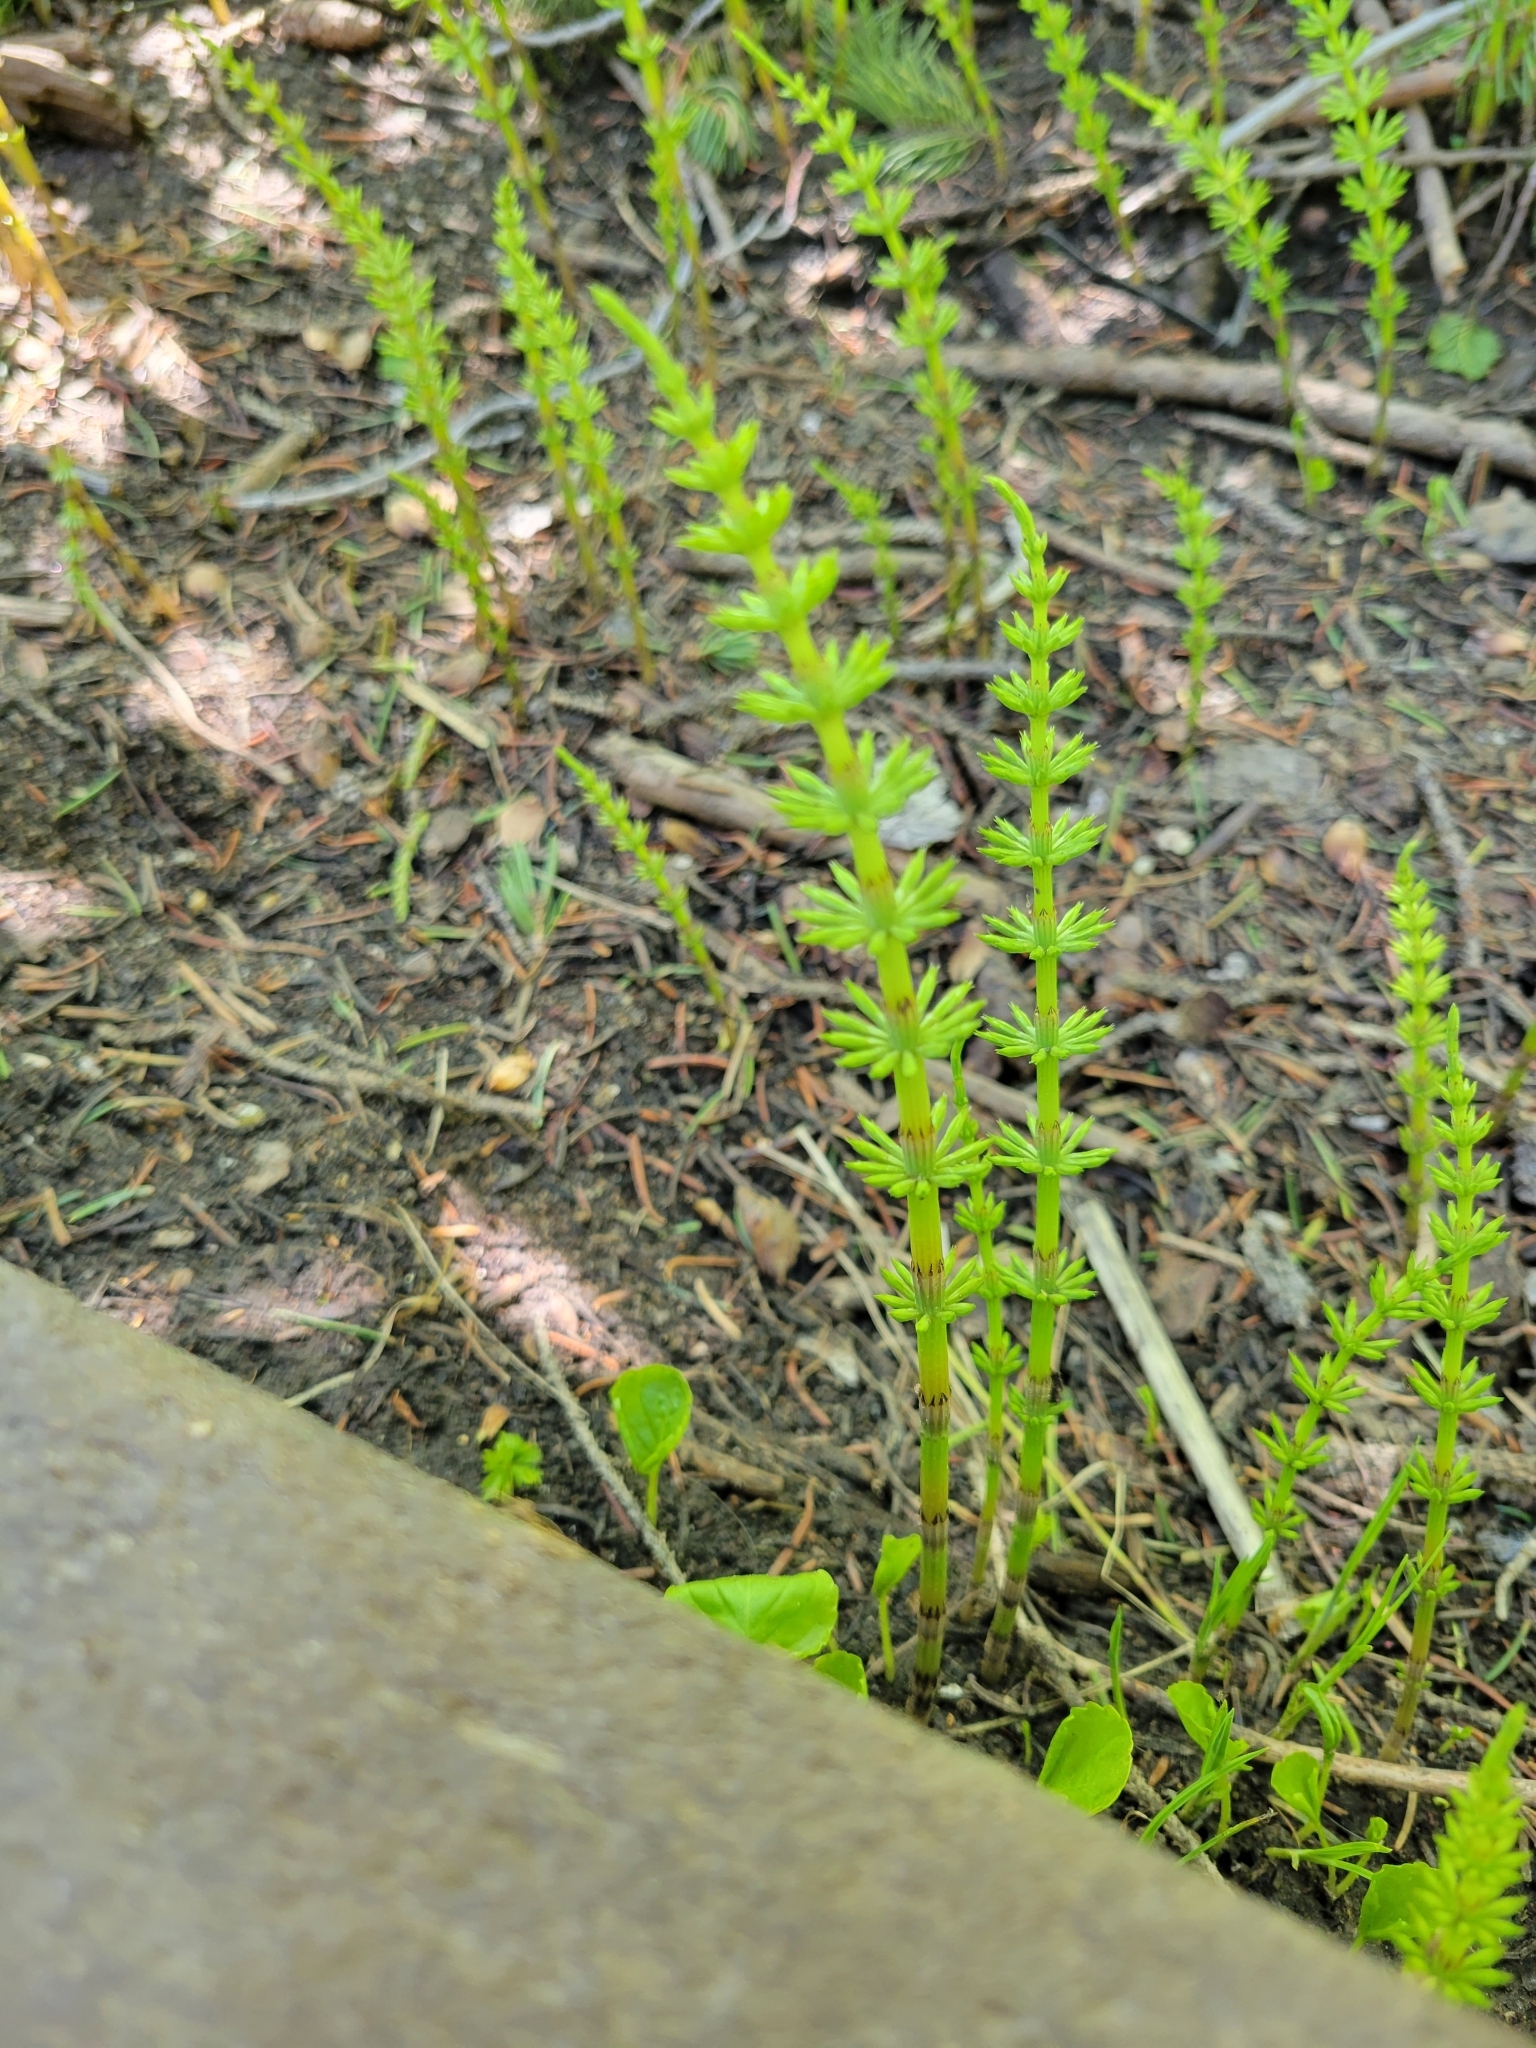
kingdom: Plantae
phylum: Tracheophyta
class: Polypodiopsida
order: Equisetales
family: Equisetaceae
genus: Equisetum
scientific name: Equisetum arvense
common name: Field horsetail
